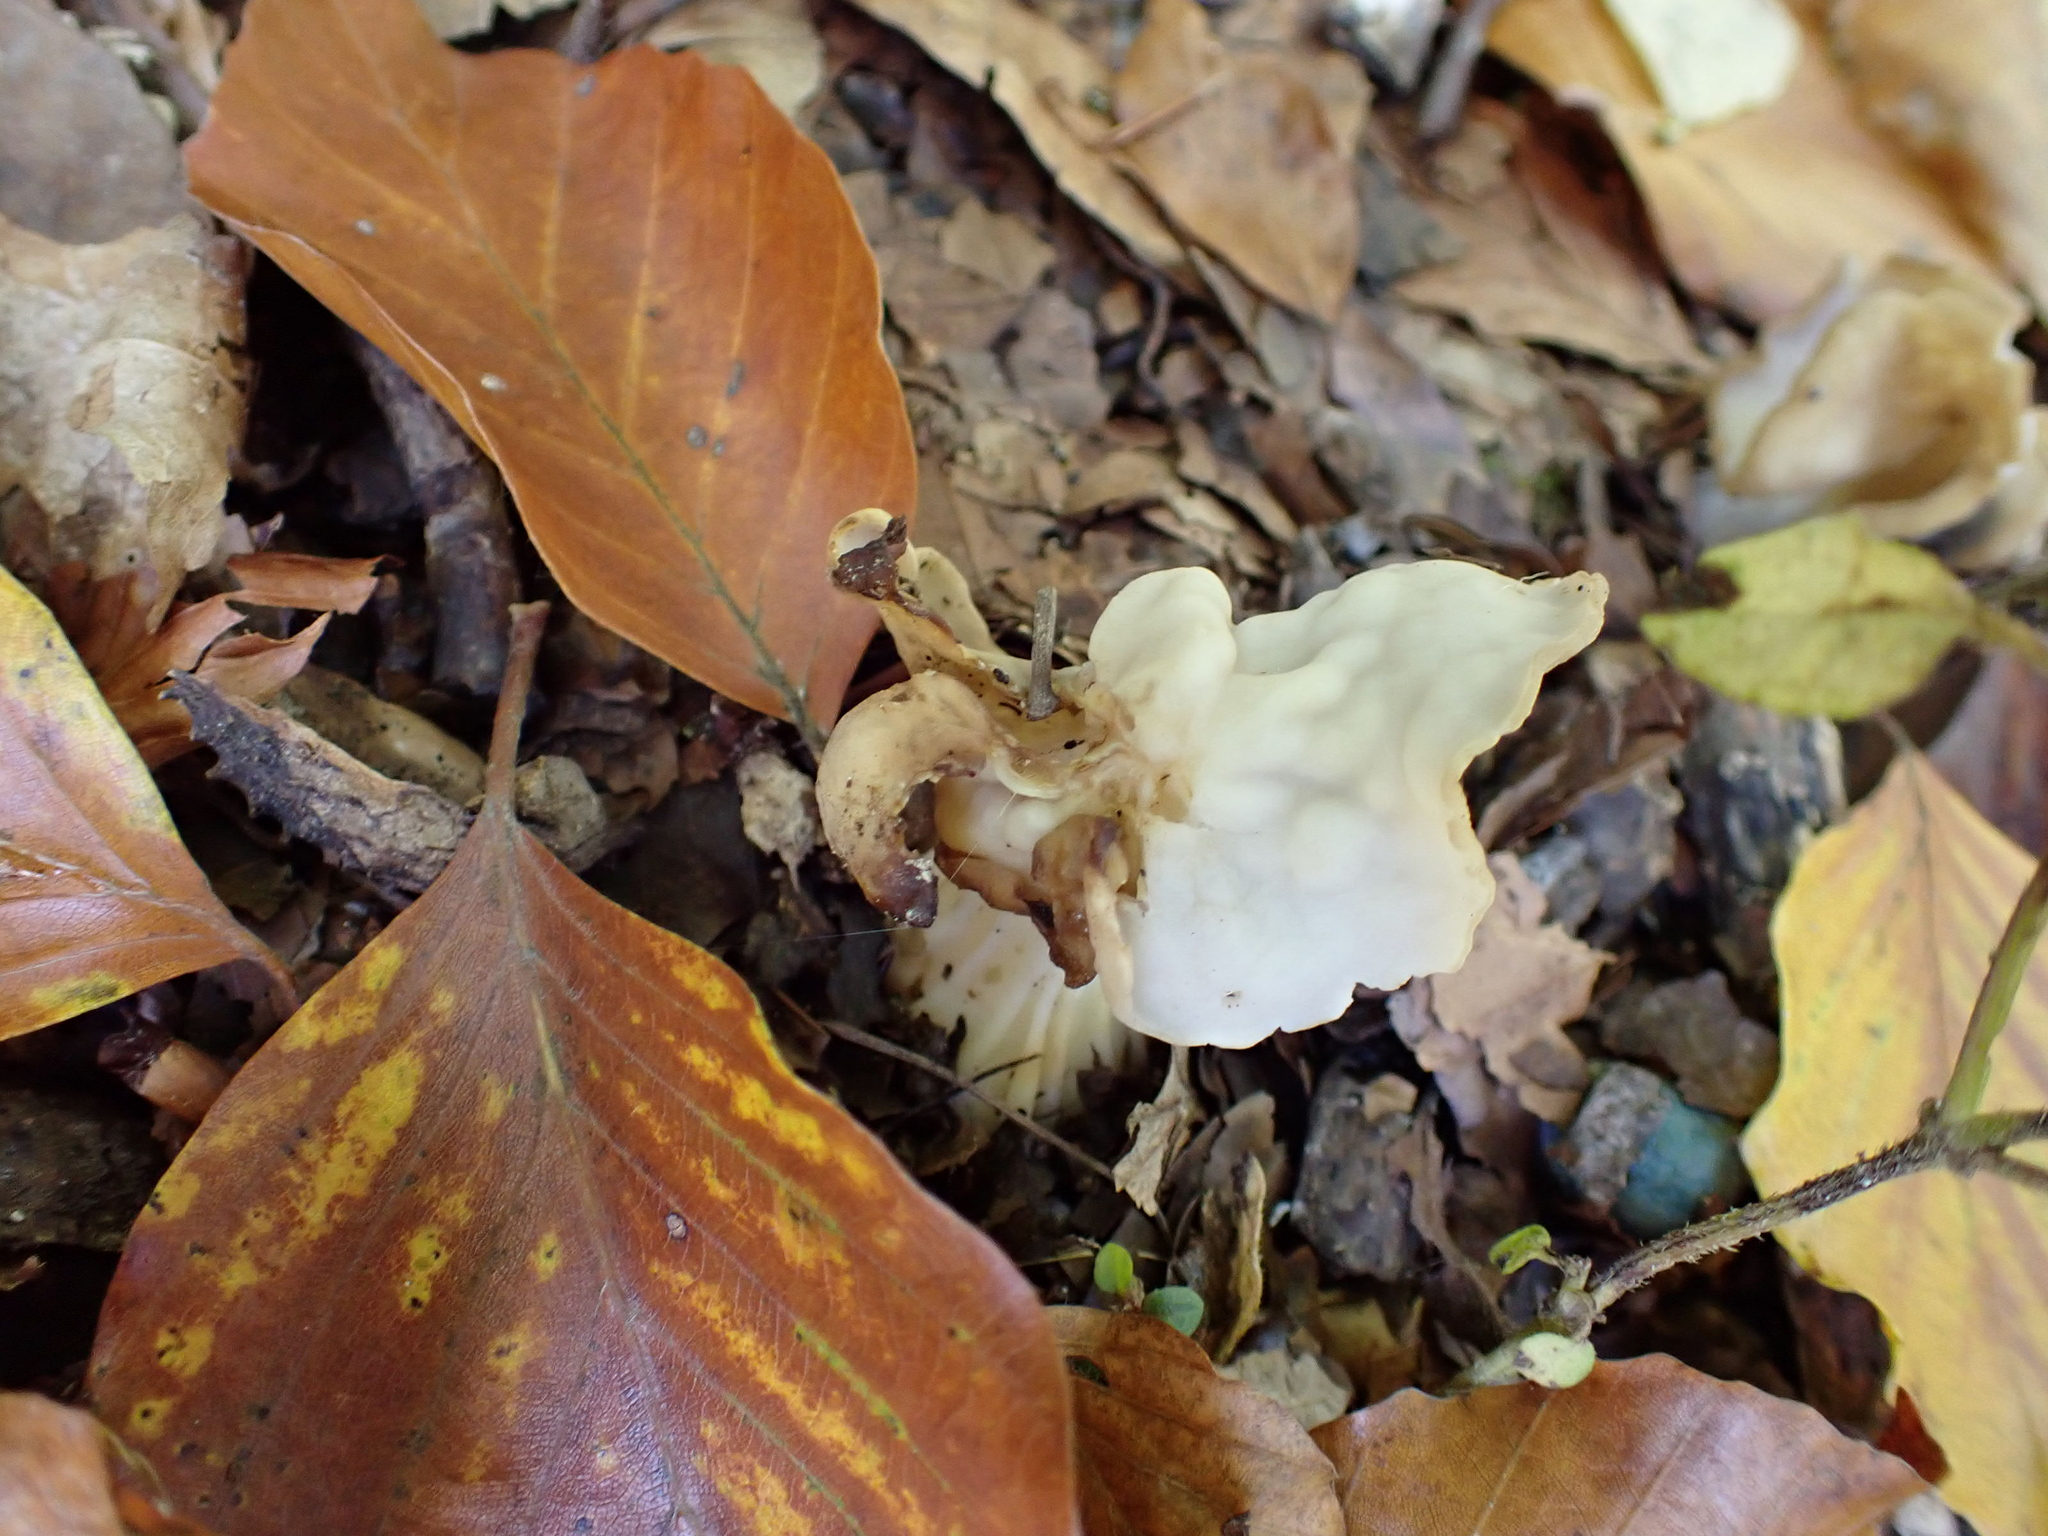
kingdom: Fungi
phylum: Ascomycota
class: Pezizomycetes
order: Pezizales
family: Helvellaceae
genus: Helvella
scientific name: Helvella crispa
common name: White saddle
